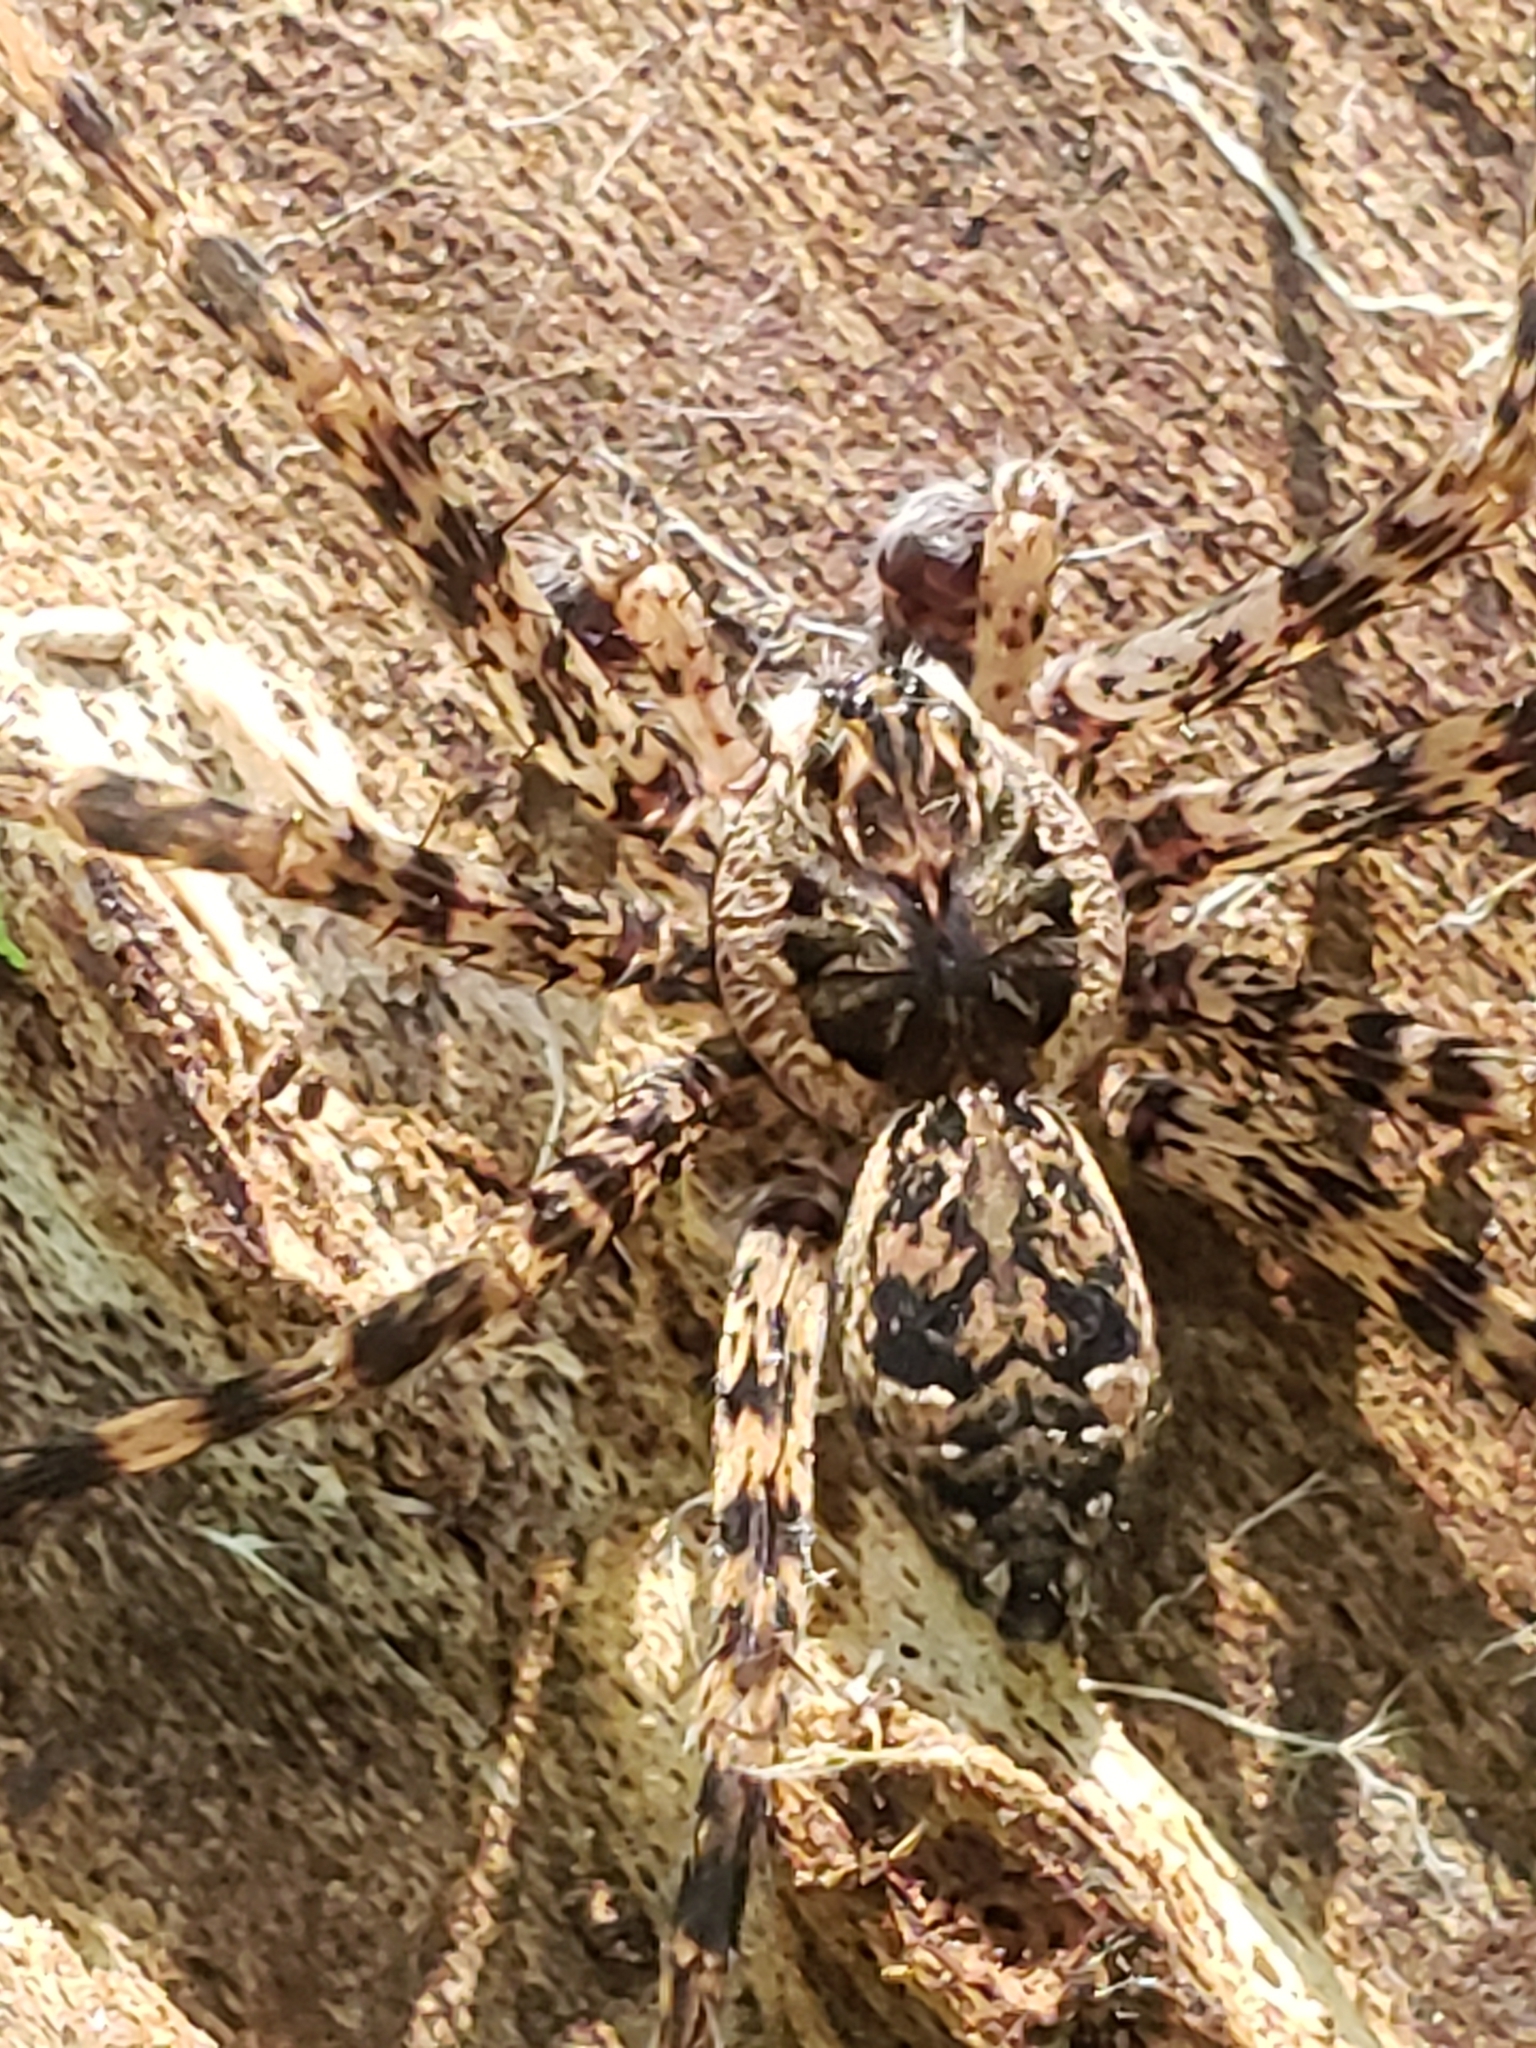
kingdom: Animalia
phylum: Arthropoda
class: Arachnida
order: Araneae
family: Pisauridae
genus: Dolomedes
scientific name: Dolomedes tenebrosus
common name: Dark fishing spider
